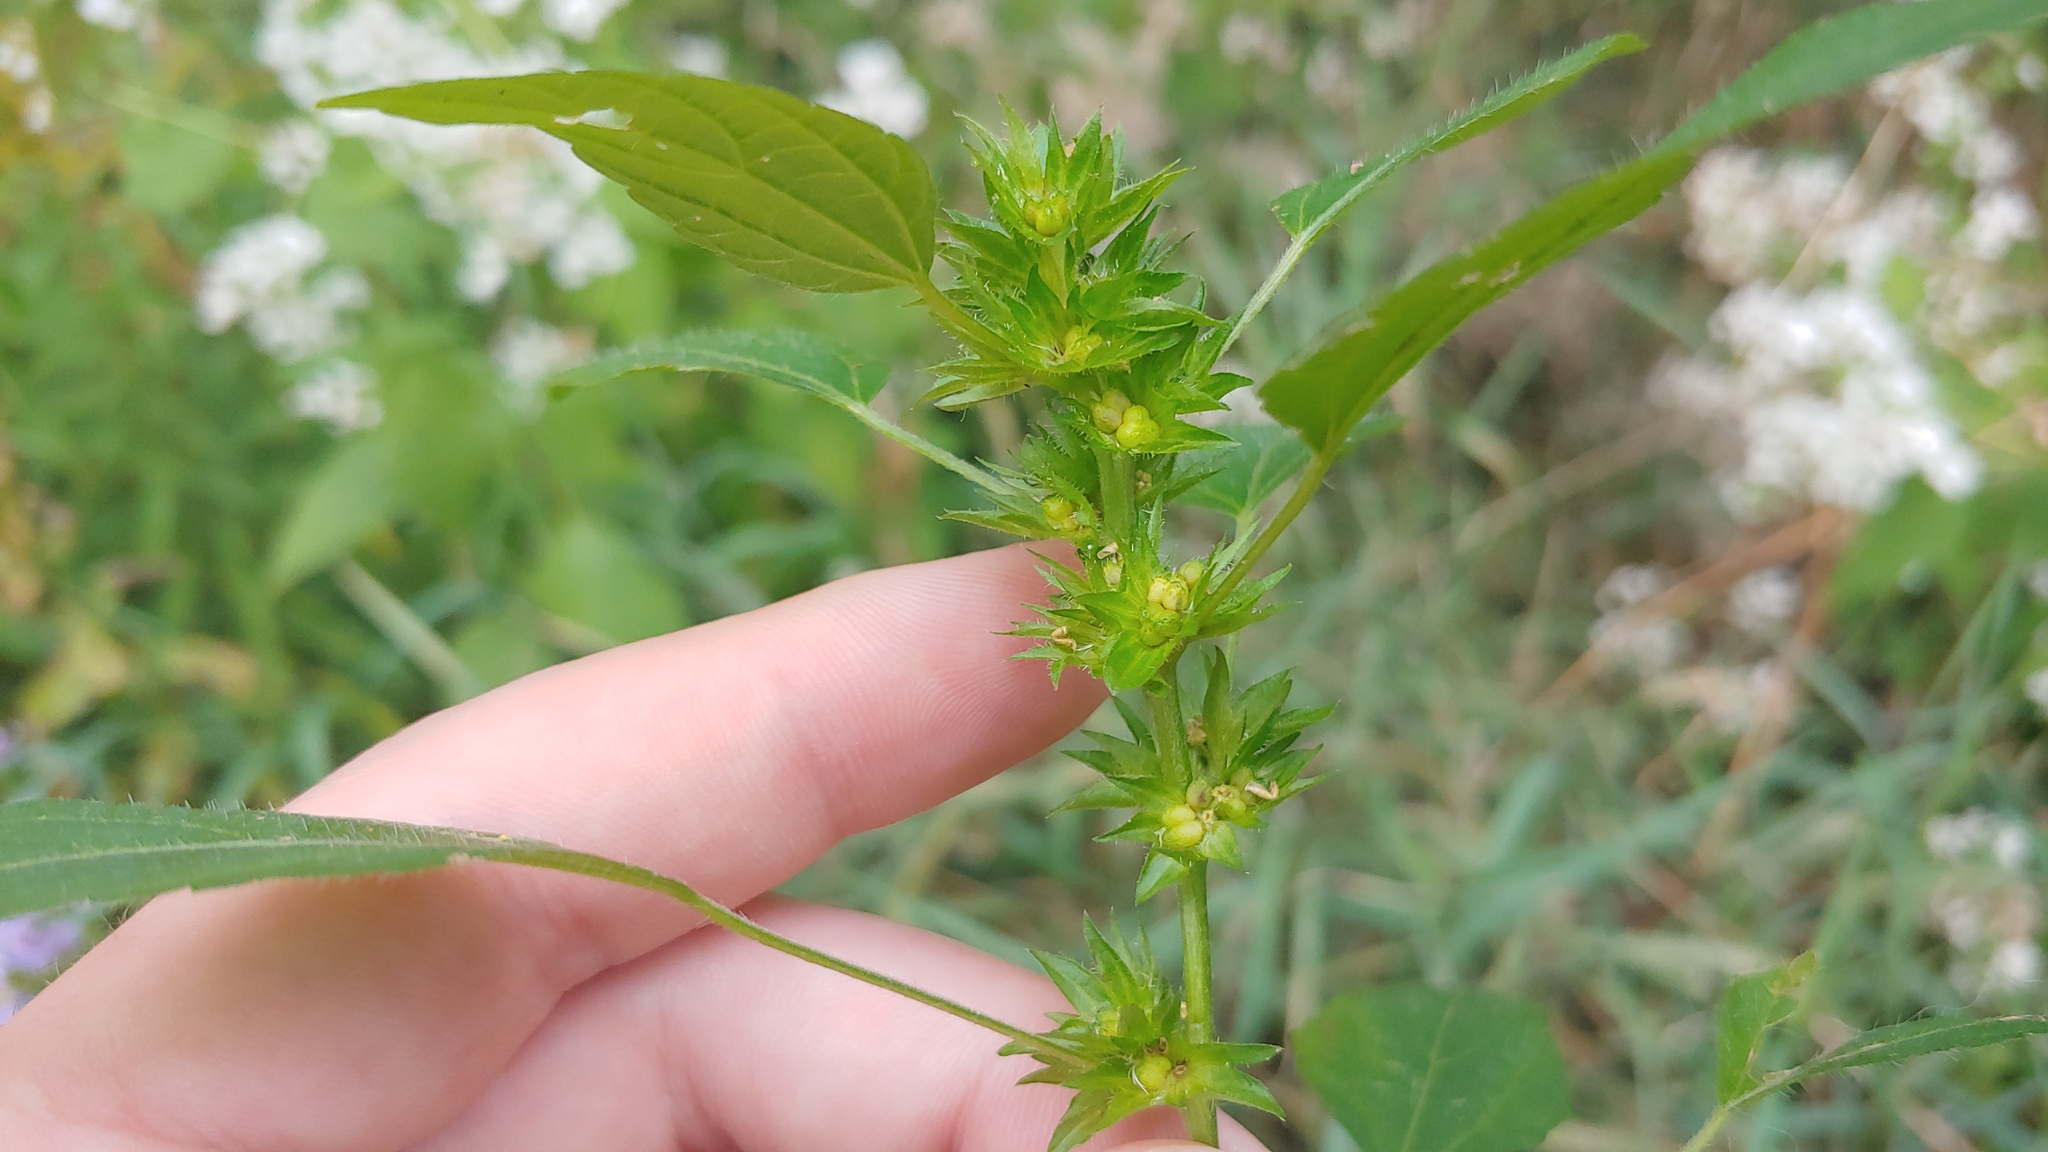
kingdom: Plantae
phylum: Tracheophyta
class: Magnoliopsida
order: Malpighiales
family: Euphorbiaceae
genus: Acalypha
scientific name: Acalypha rhomboidea
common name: Rhombic copperleaf
